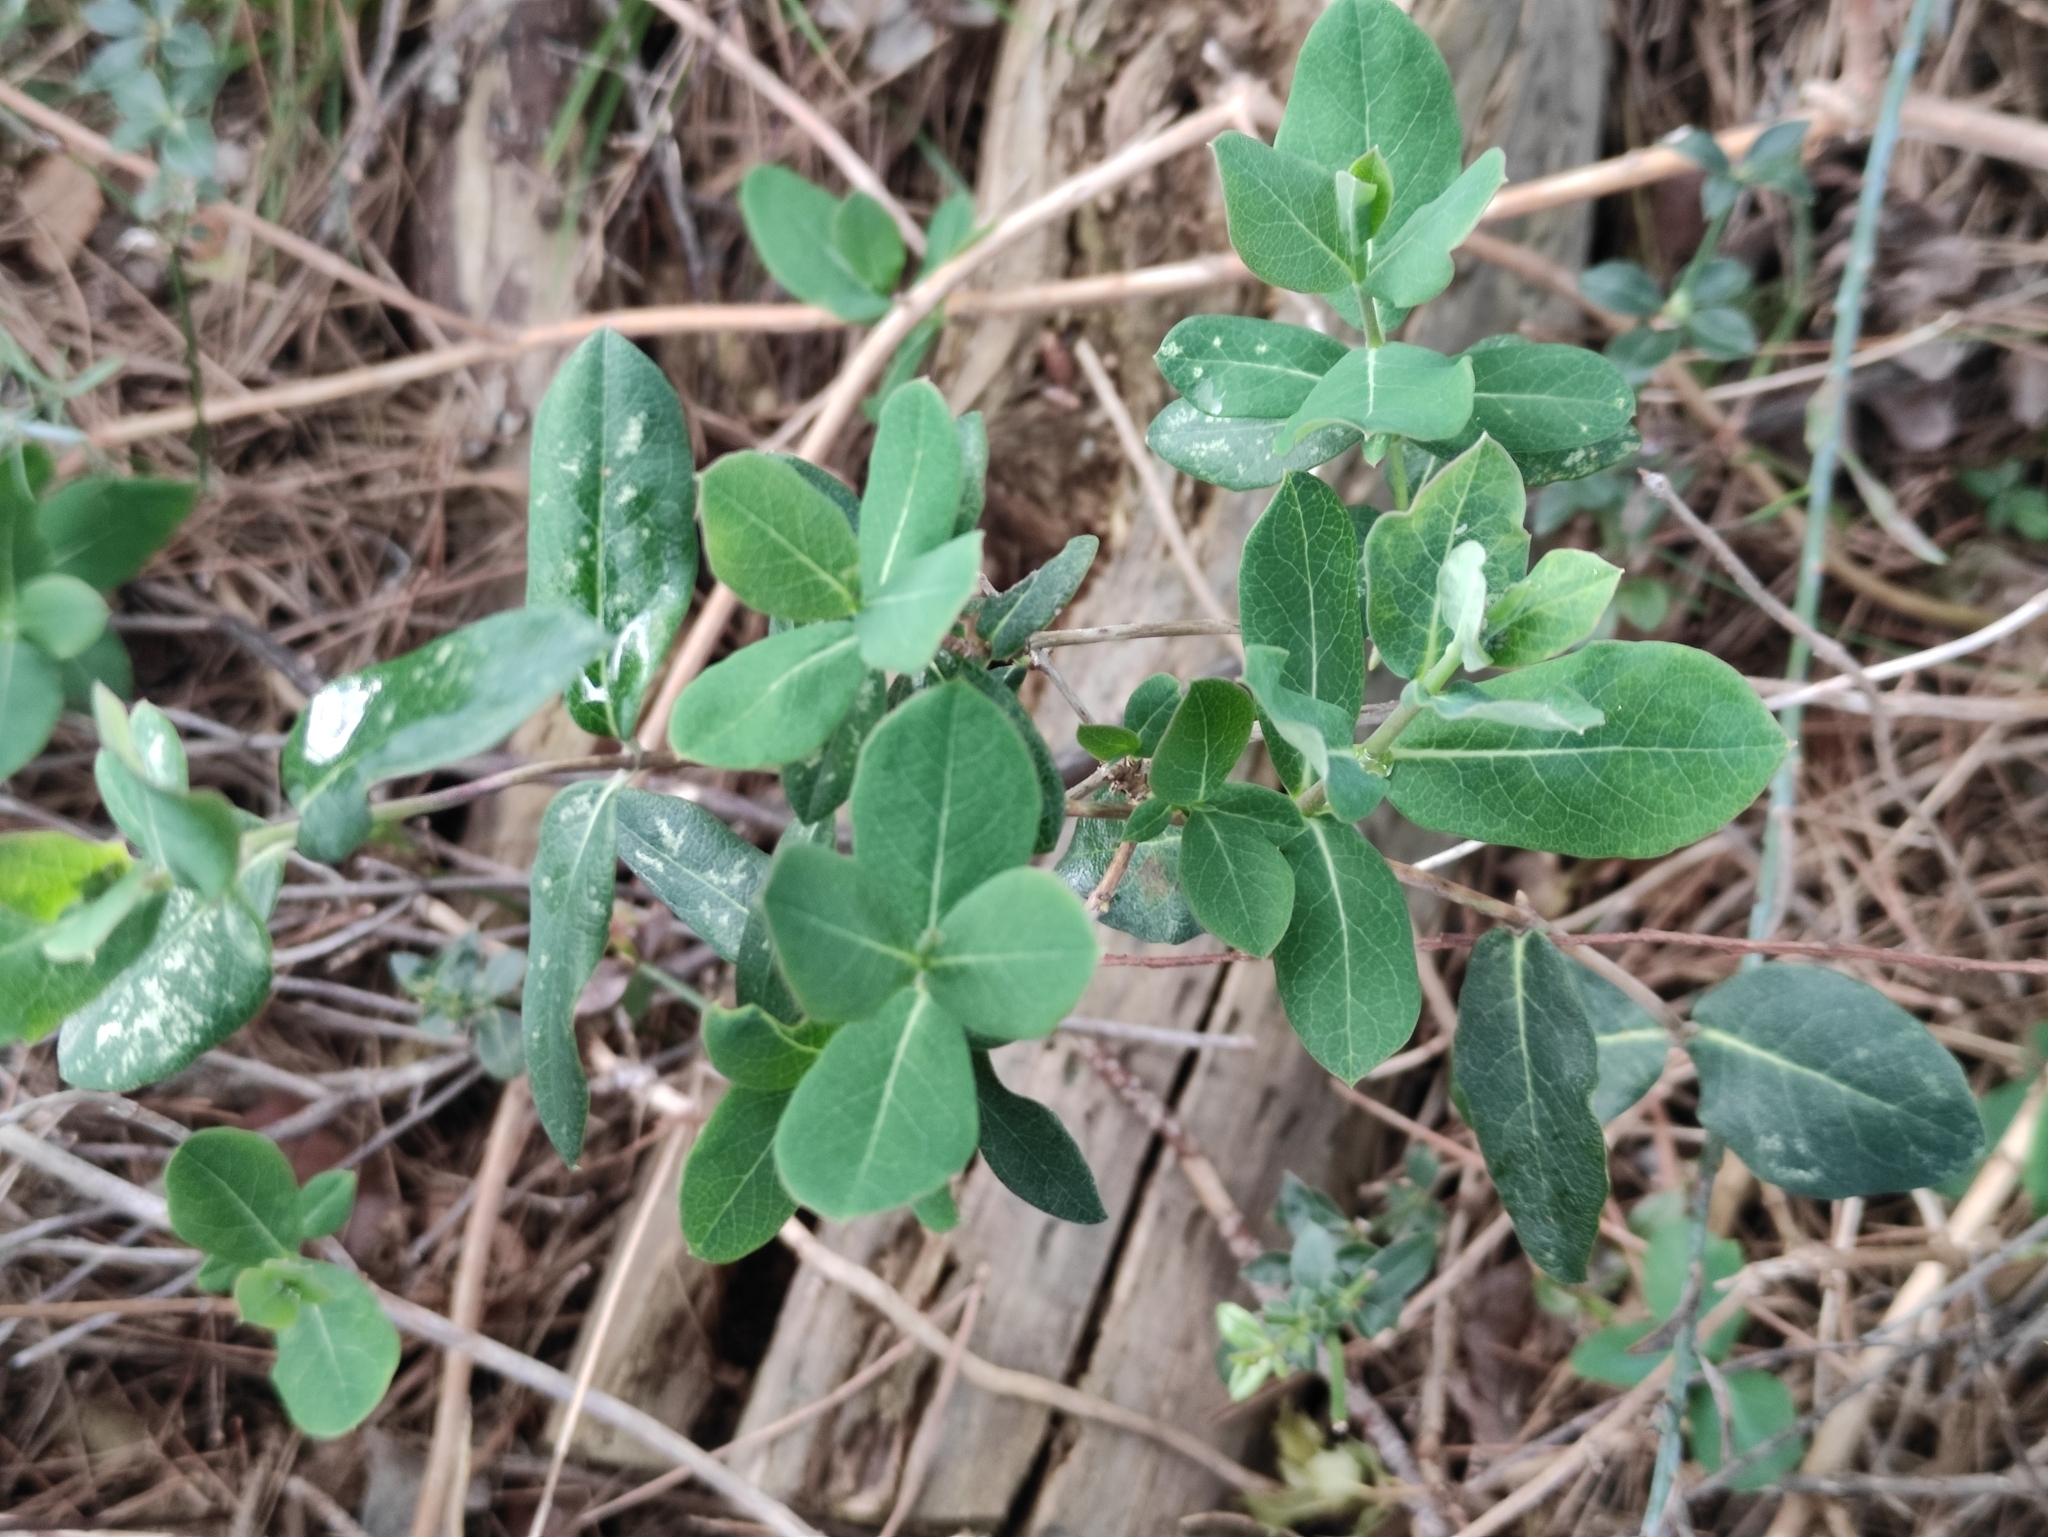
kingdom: Plantae
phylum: Tracheophyta
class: Magnoliopsida
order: Dipsacales
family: Caprifoliaceae
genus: Lonicera
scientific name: Lonicera etrusca
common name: Etruscan honeysuckle
